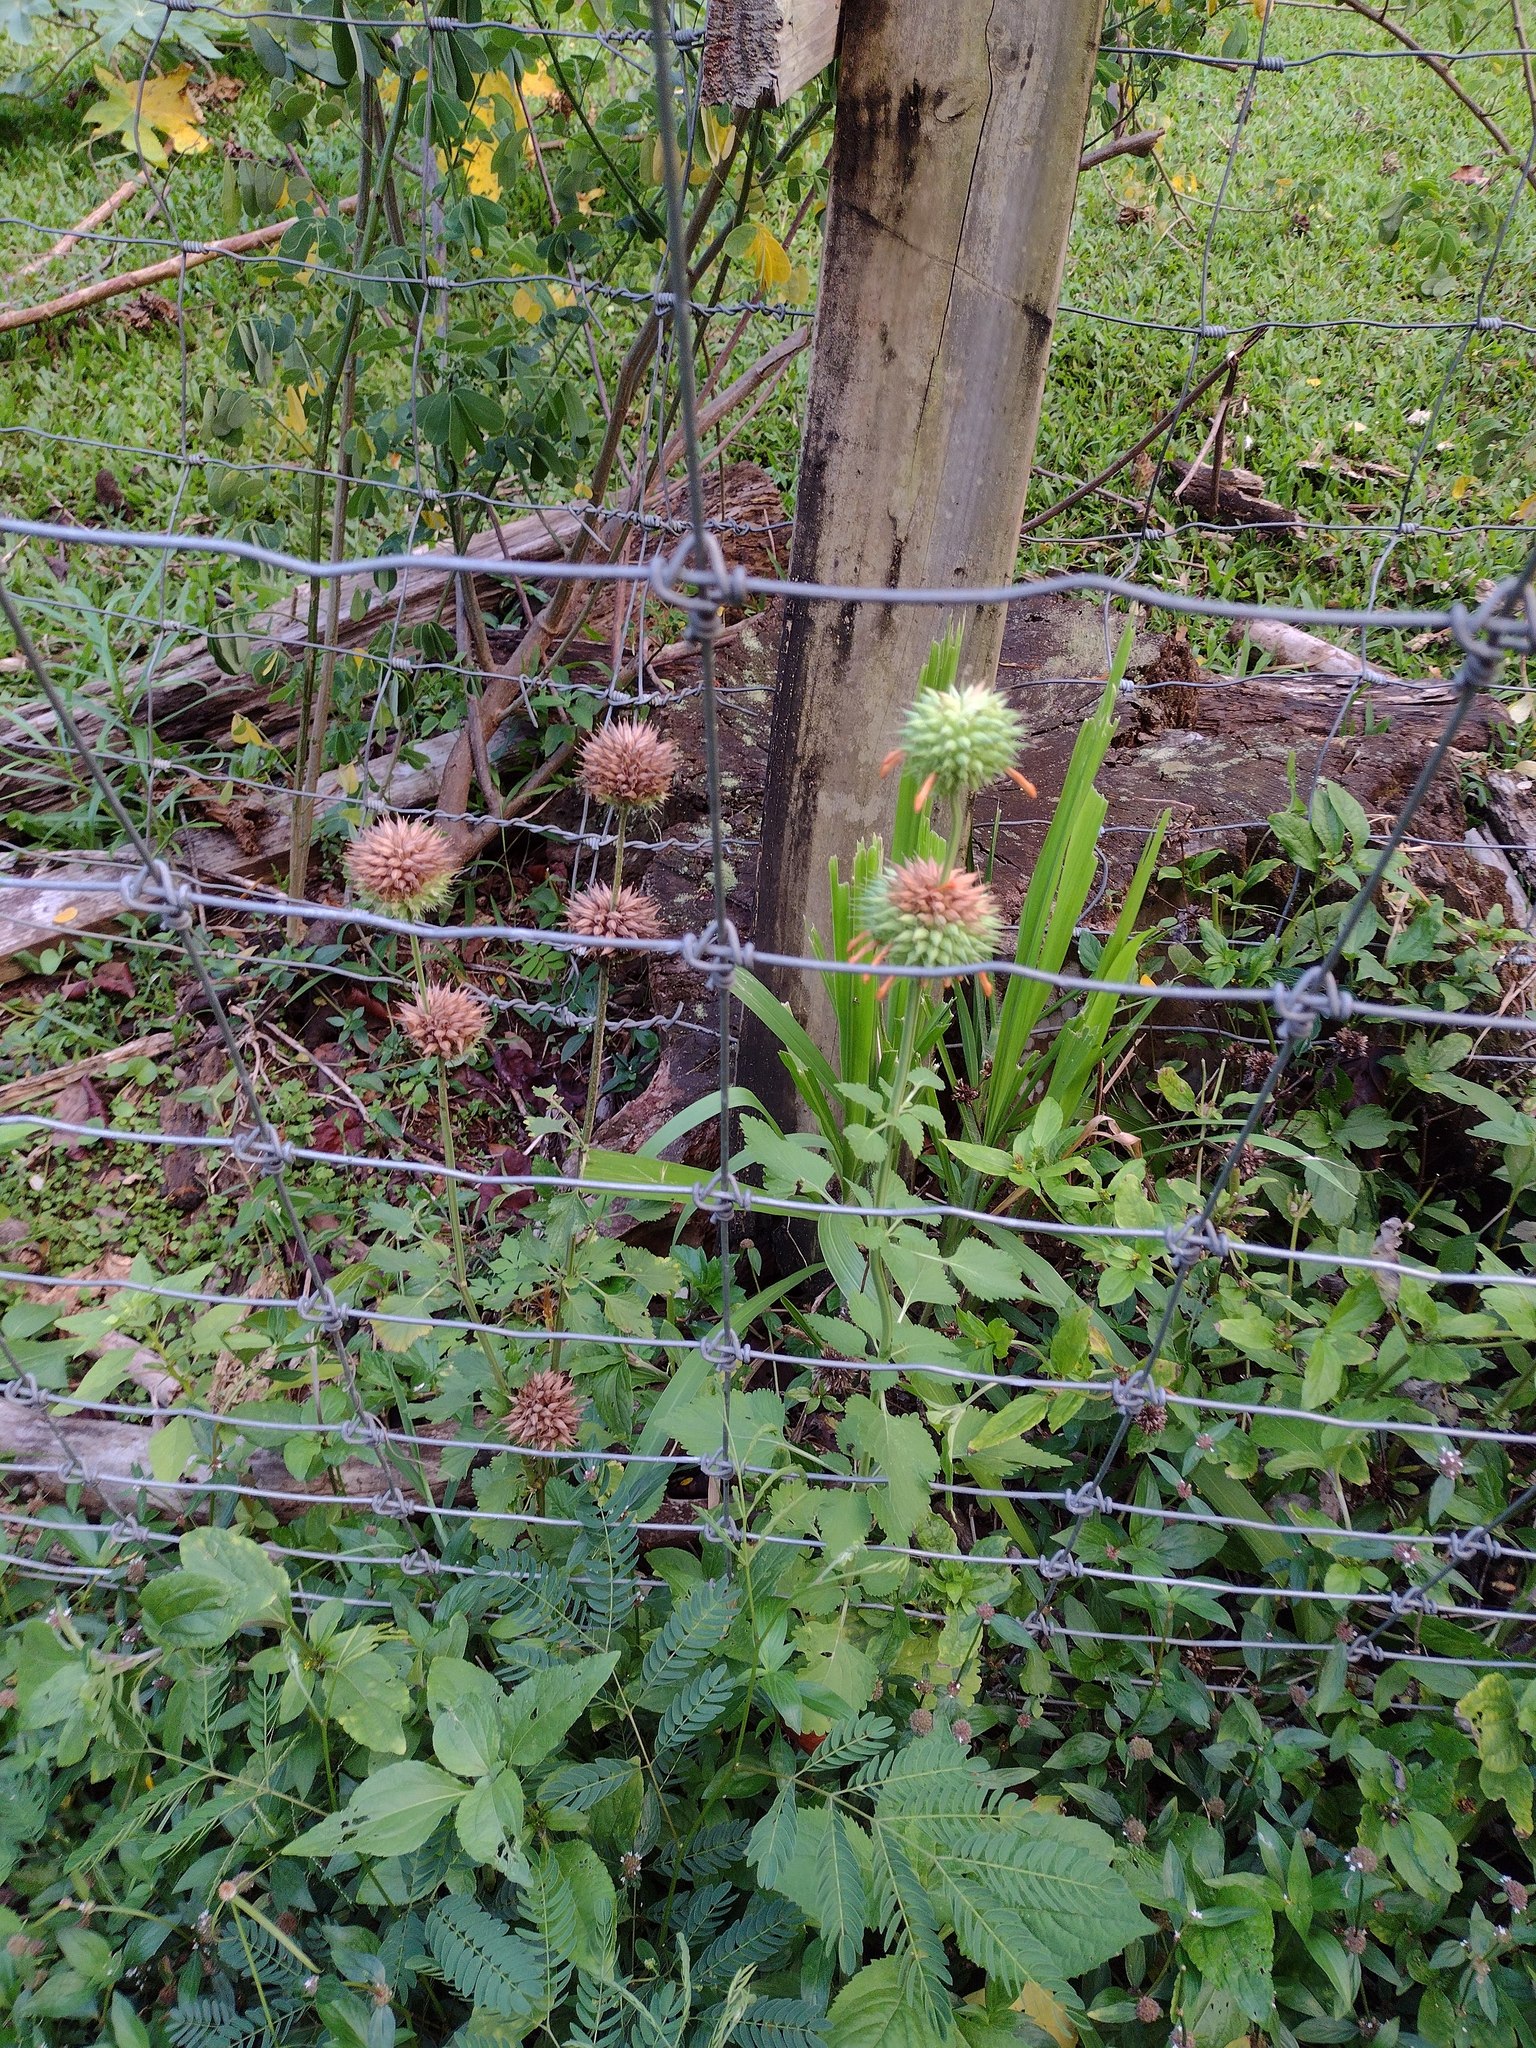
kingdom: Plantae
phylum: Tracheophyta
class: Magnoliopsida
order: Lamiales
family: Lamiaceae
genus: Leonotis
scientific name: Leonotis nepetifolia
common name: Christmas candlestick
